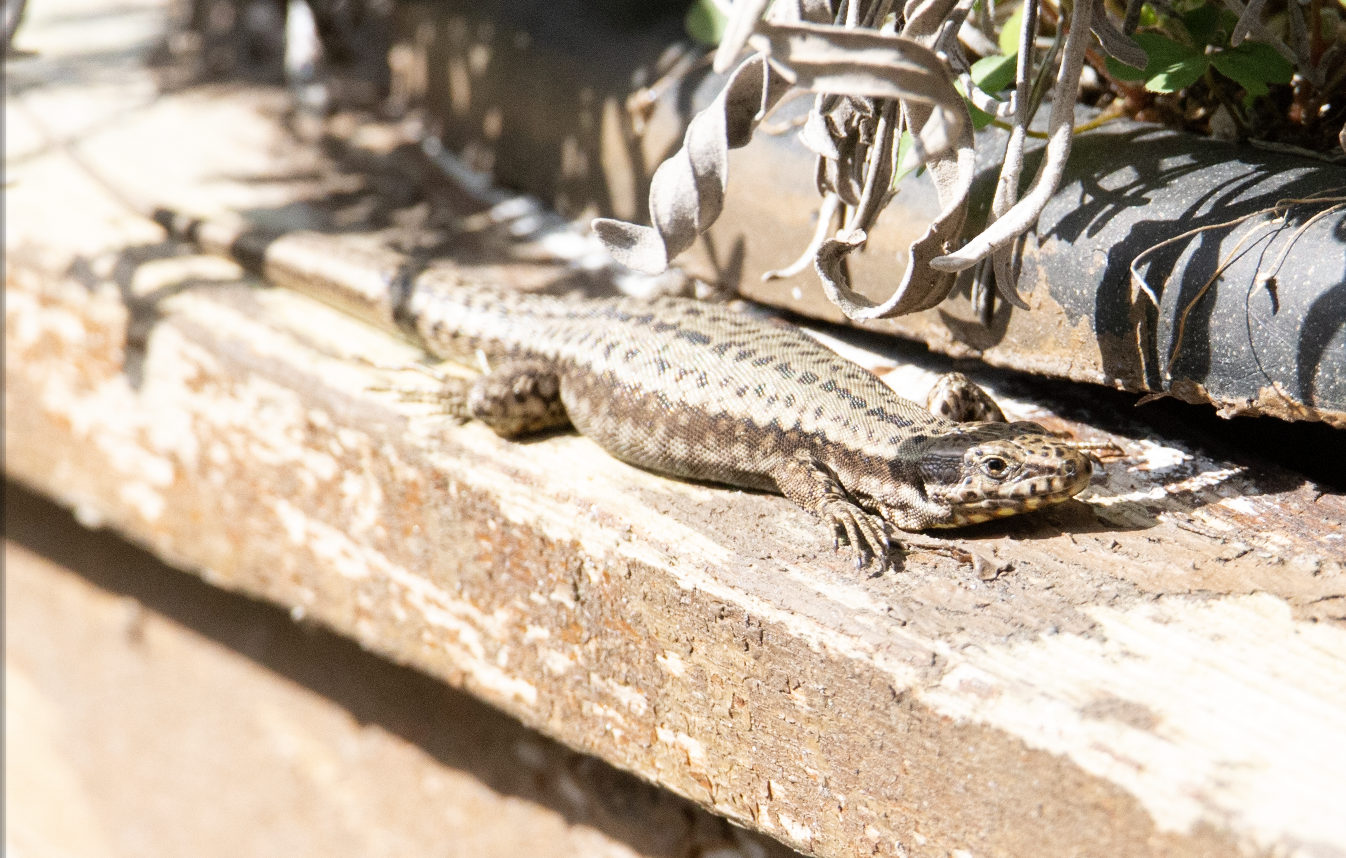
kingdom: Animalia
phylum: Chordata
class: Squamata
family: Lacertidae
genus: Podarcis
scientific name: Podarcis muralis
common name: Common wall lizard
